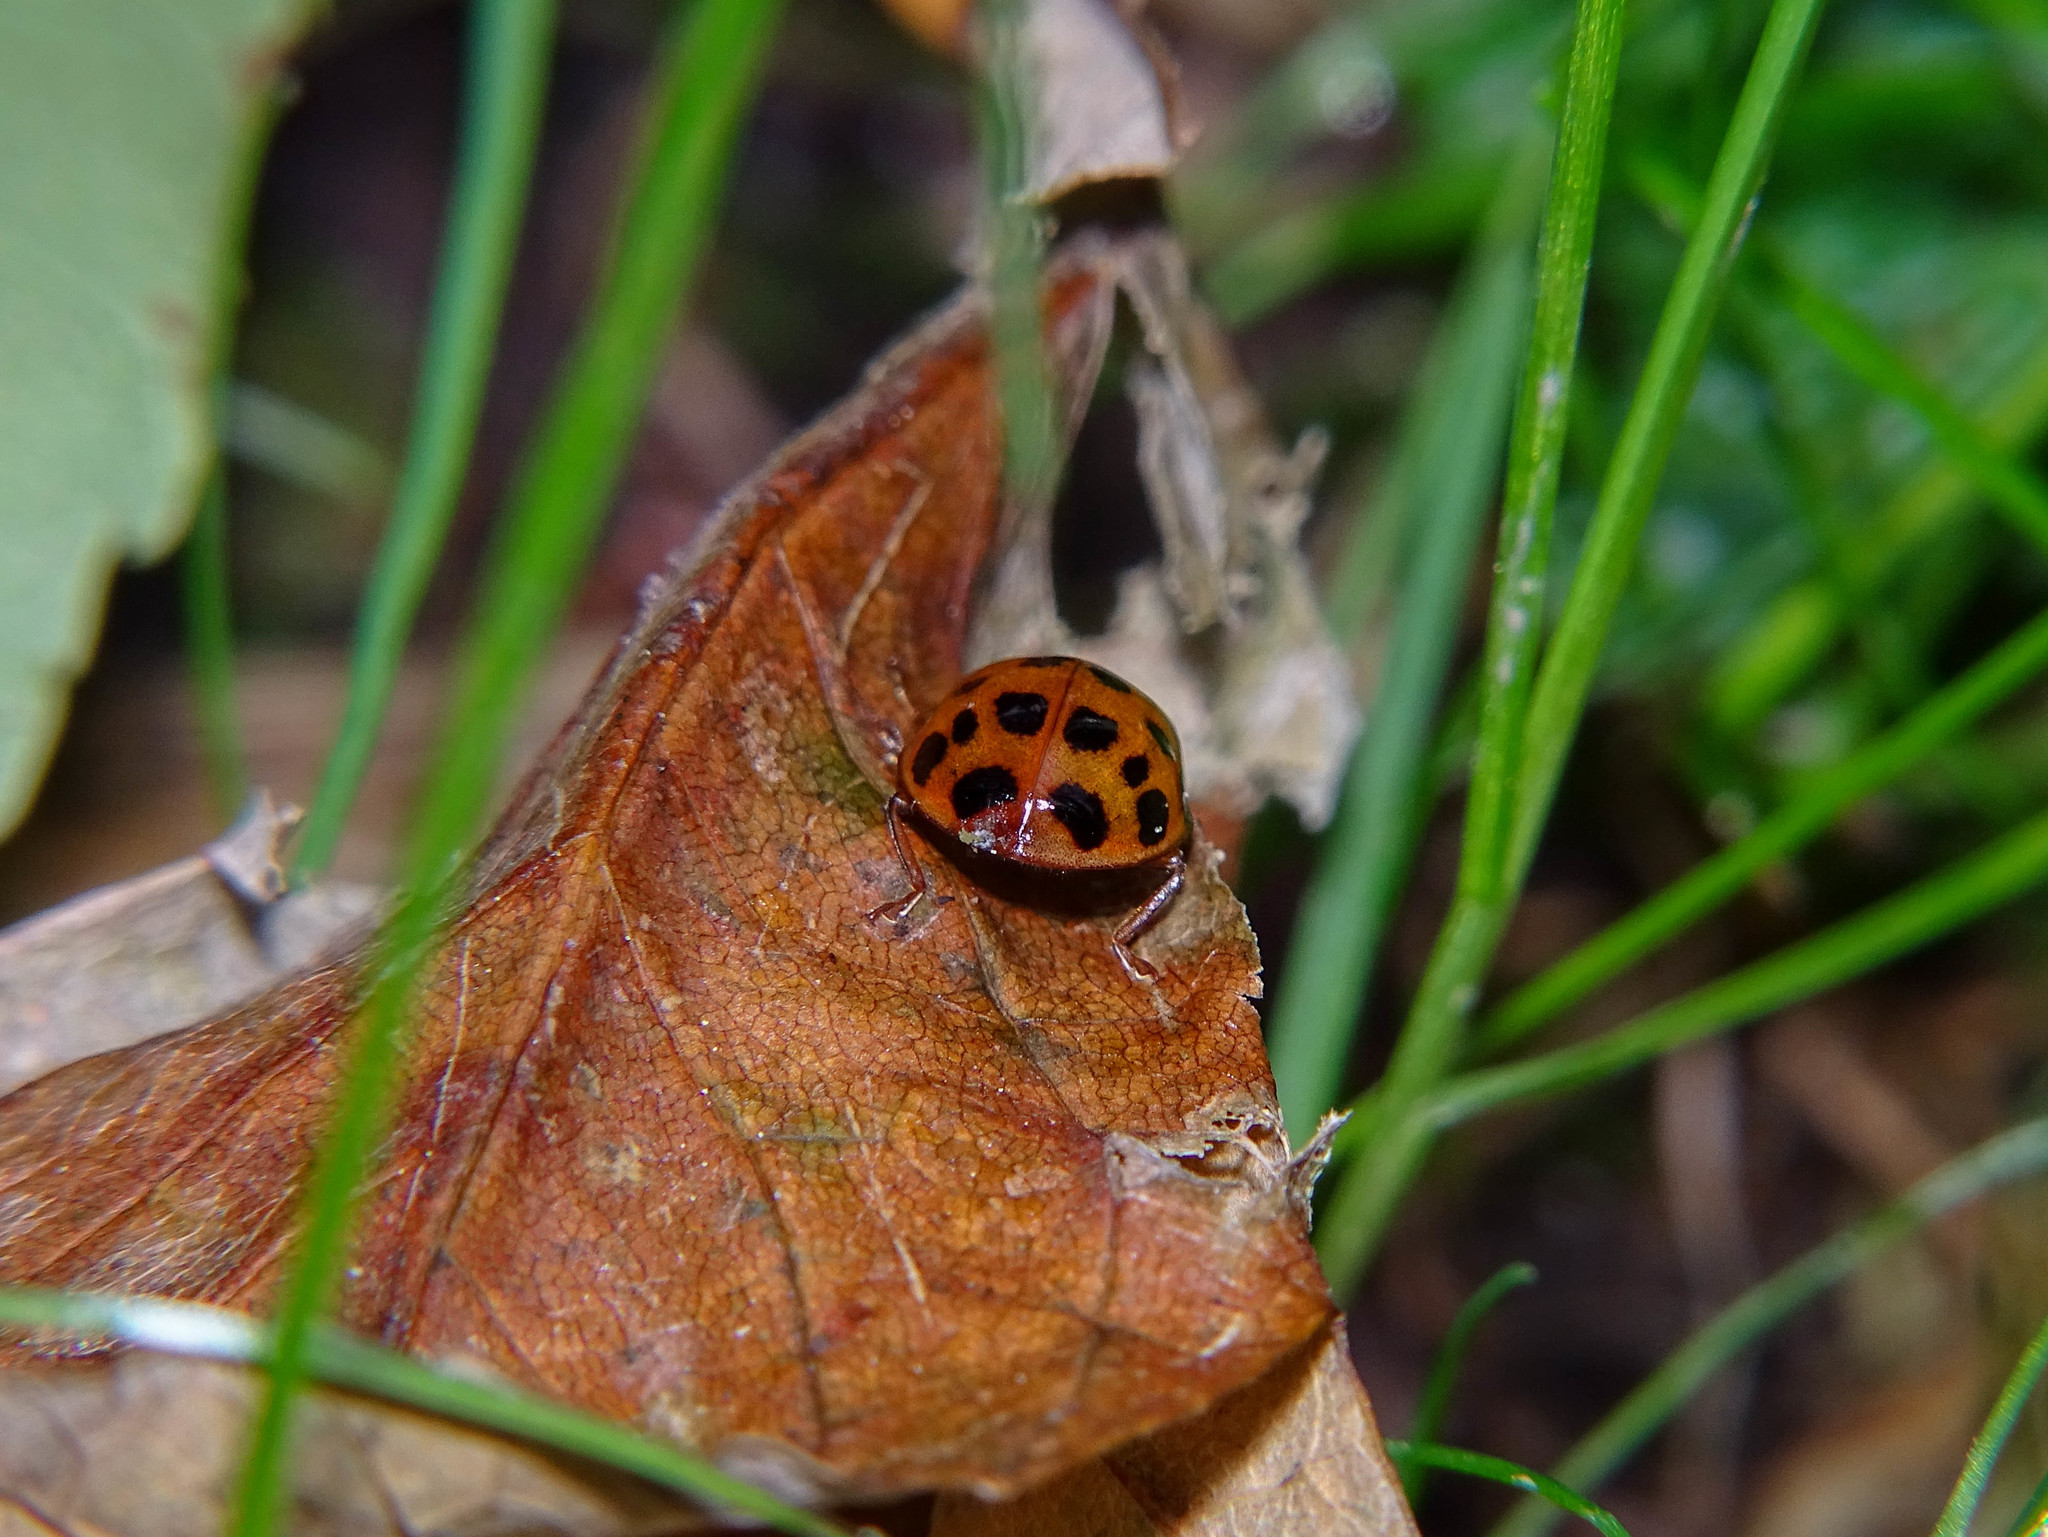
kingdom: Animalia
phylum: Arthropoda
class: Insecta
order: Coleoptera
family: Coccinellidae
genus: Harmonia
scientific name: Harmonia axyridis
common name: Harlequin ladybird
